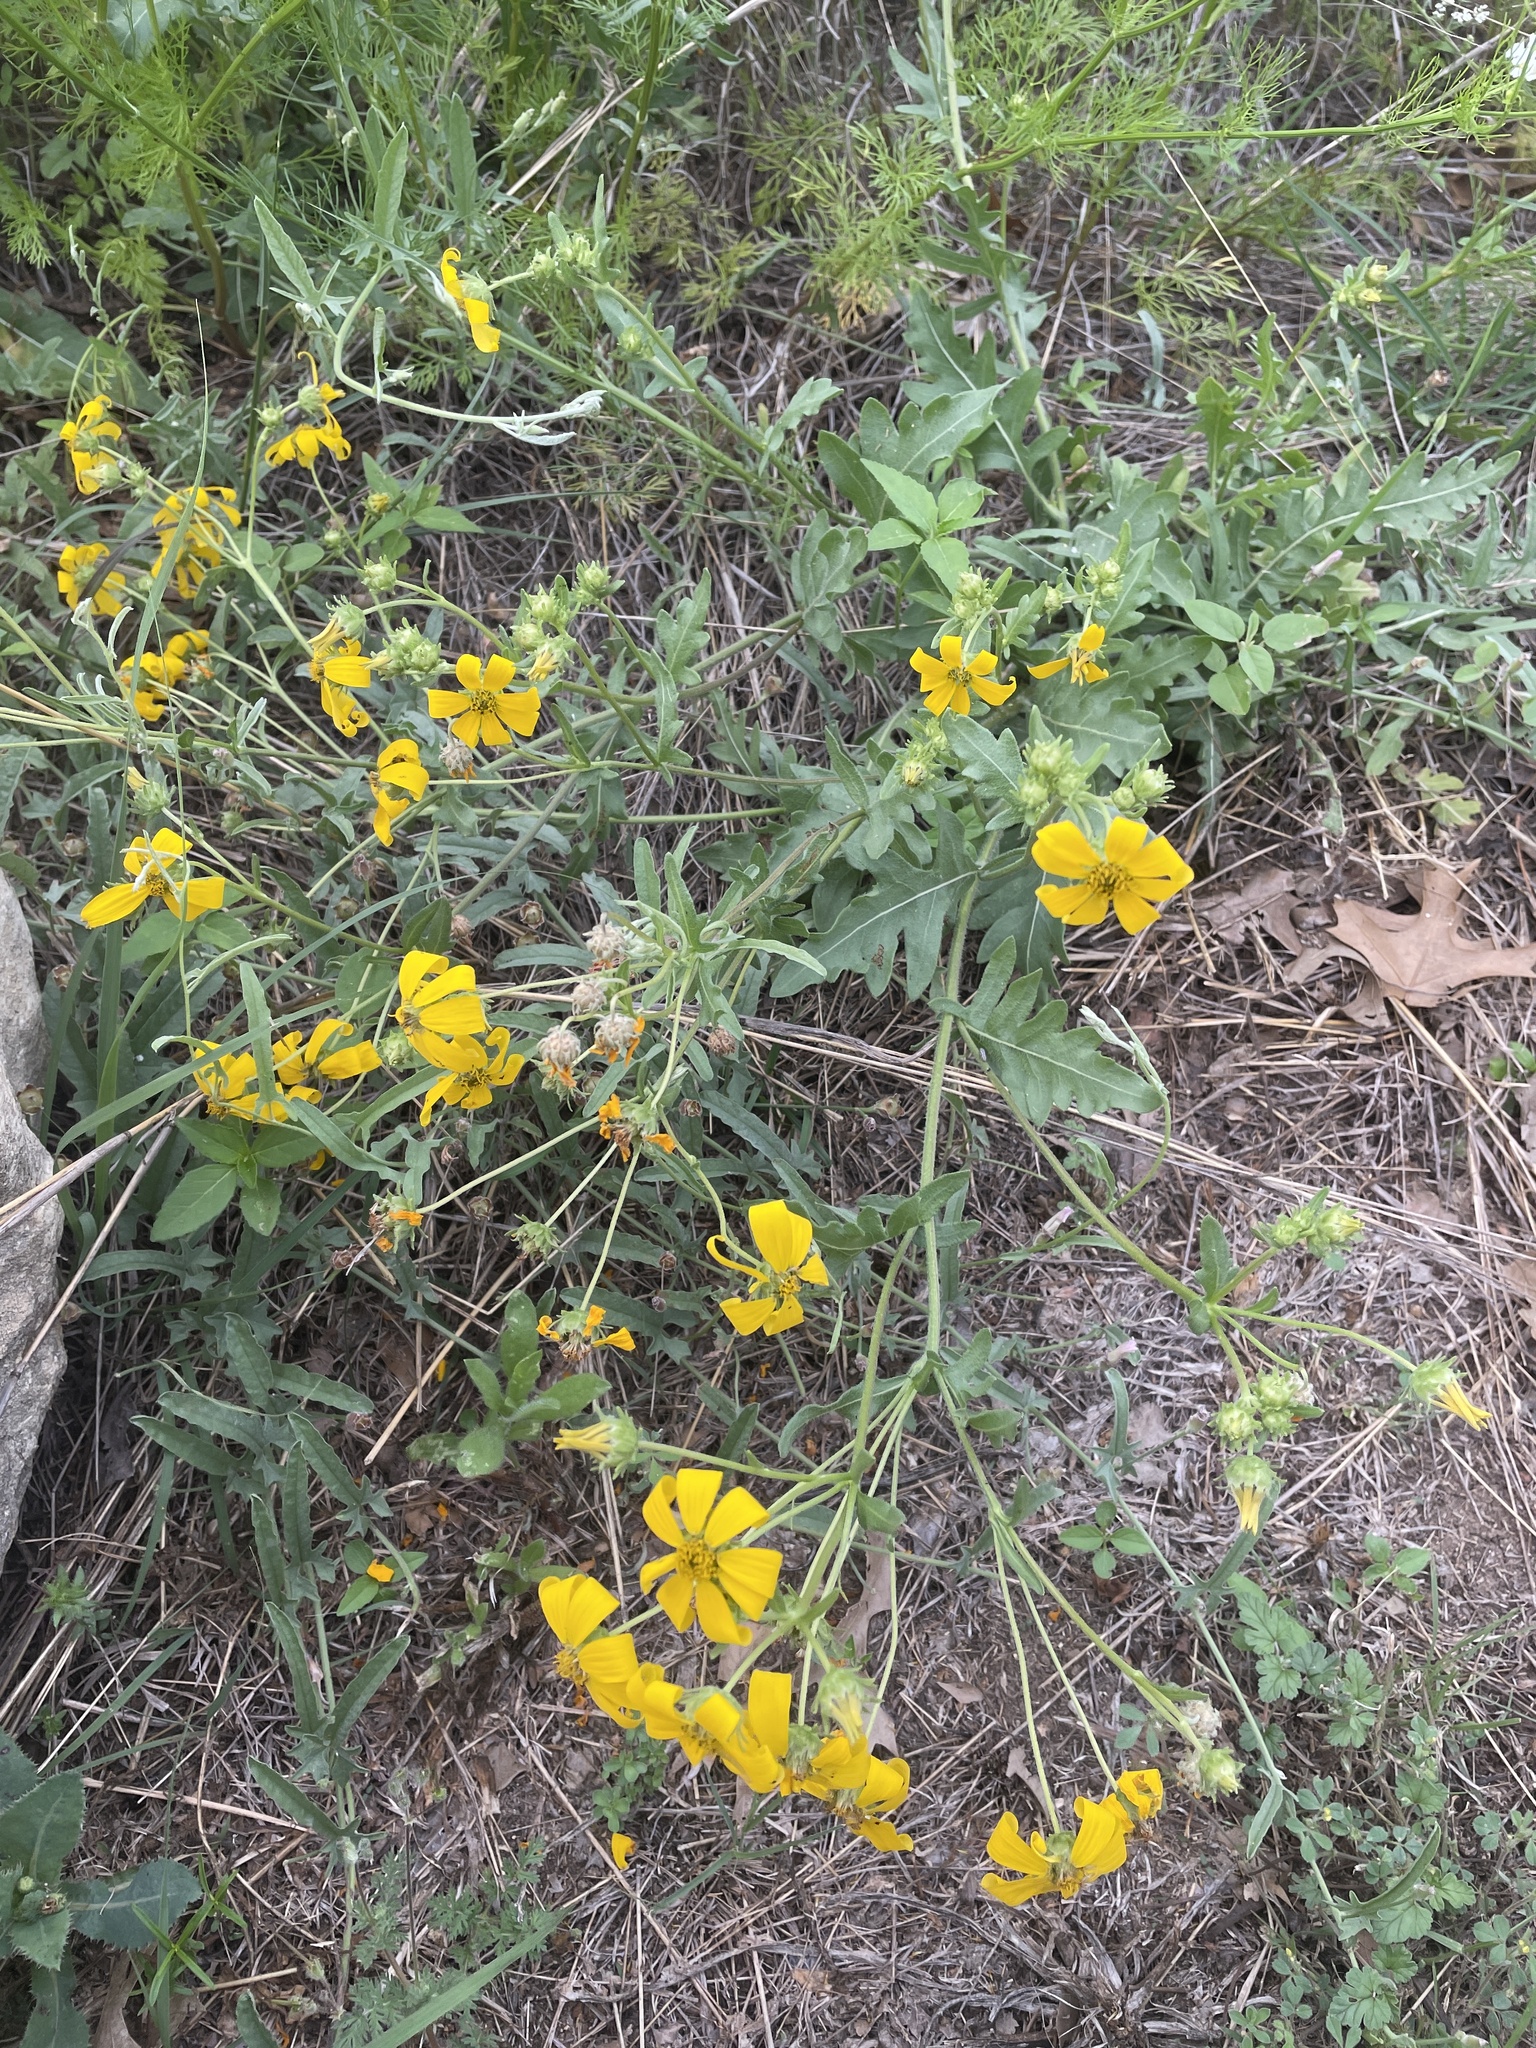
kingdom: Plantae
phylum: Tracheophyta
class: Magnoliopsida
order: Asterales
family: Asteraceae
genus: Engelmannia
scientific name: Engelmannia peristenia
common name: Engelmann's daisy
